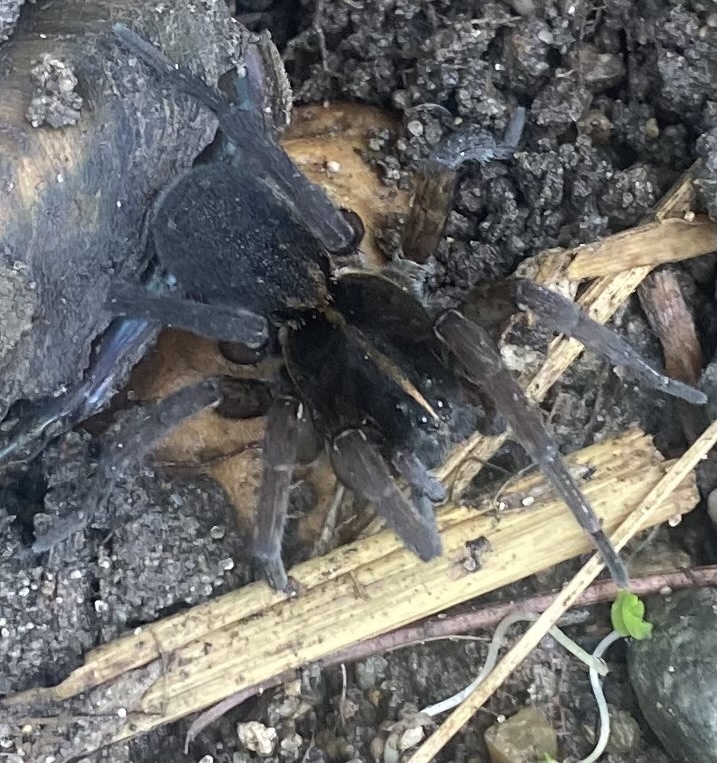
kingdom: Animalia
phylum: Arthropoda
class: Arachnida
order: Araneae
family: Lycosidae
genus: Tigrosa
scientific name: Tigrosa aspersa
